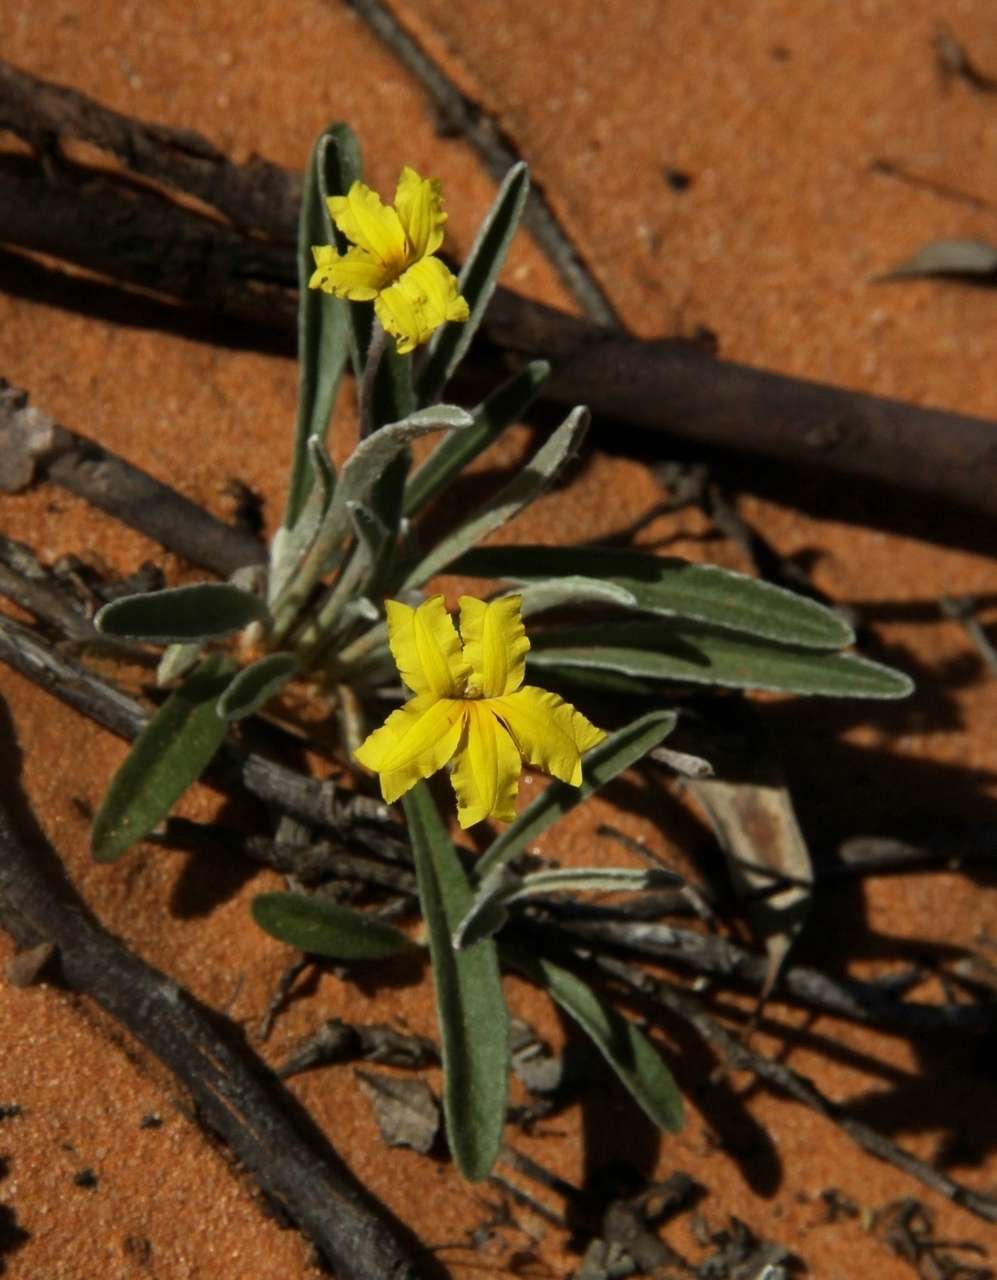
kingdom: Plantae
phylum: Tracheophyta
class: Magnoliopsida
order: Asterales
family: Goodeniaceae
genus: Goodenia
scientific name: Goodenia willisiana
